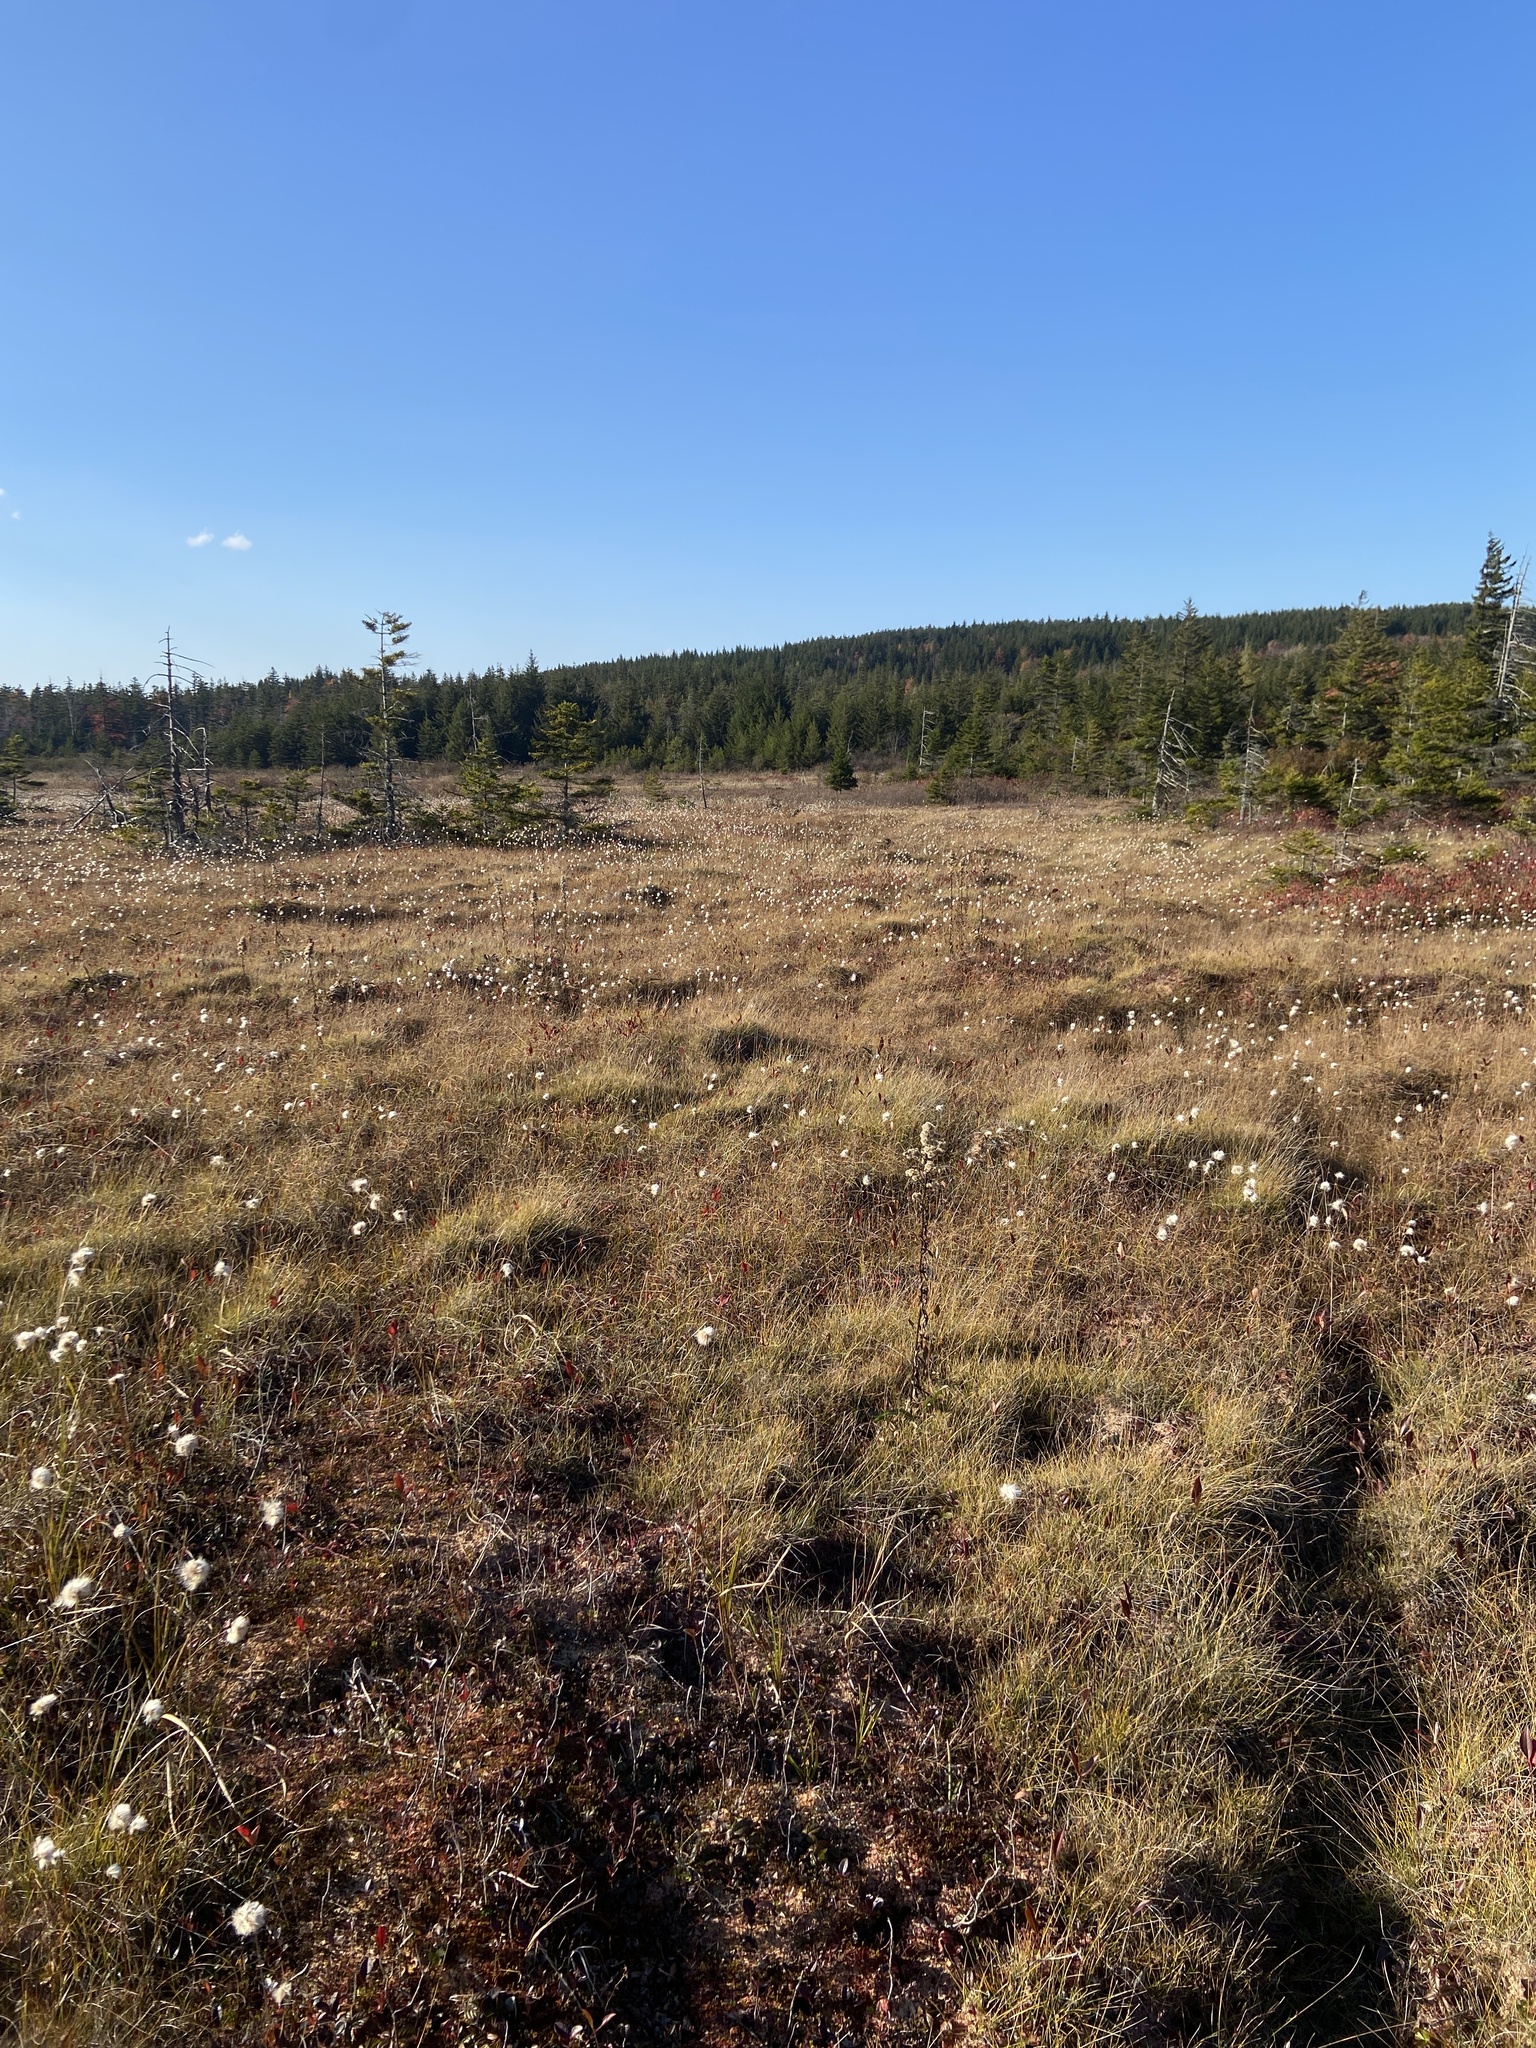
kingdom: Plantae
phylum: Tracheophyta
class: Liliopsida
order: Poales
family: Cyperaceae
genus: Eriophorum
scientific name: Eriophorum virginicum
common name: Tawny cottongrass
